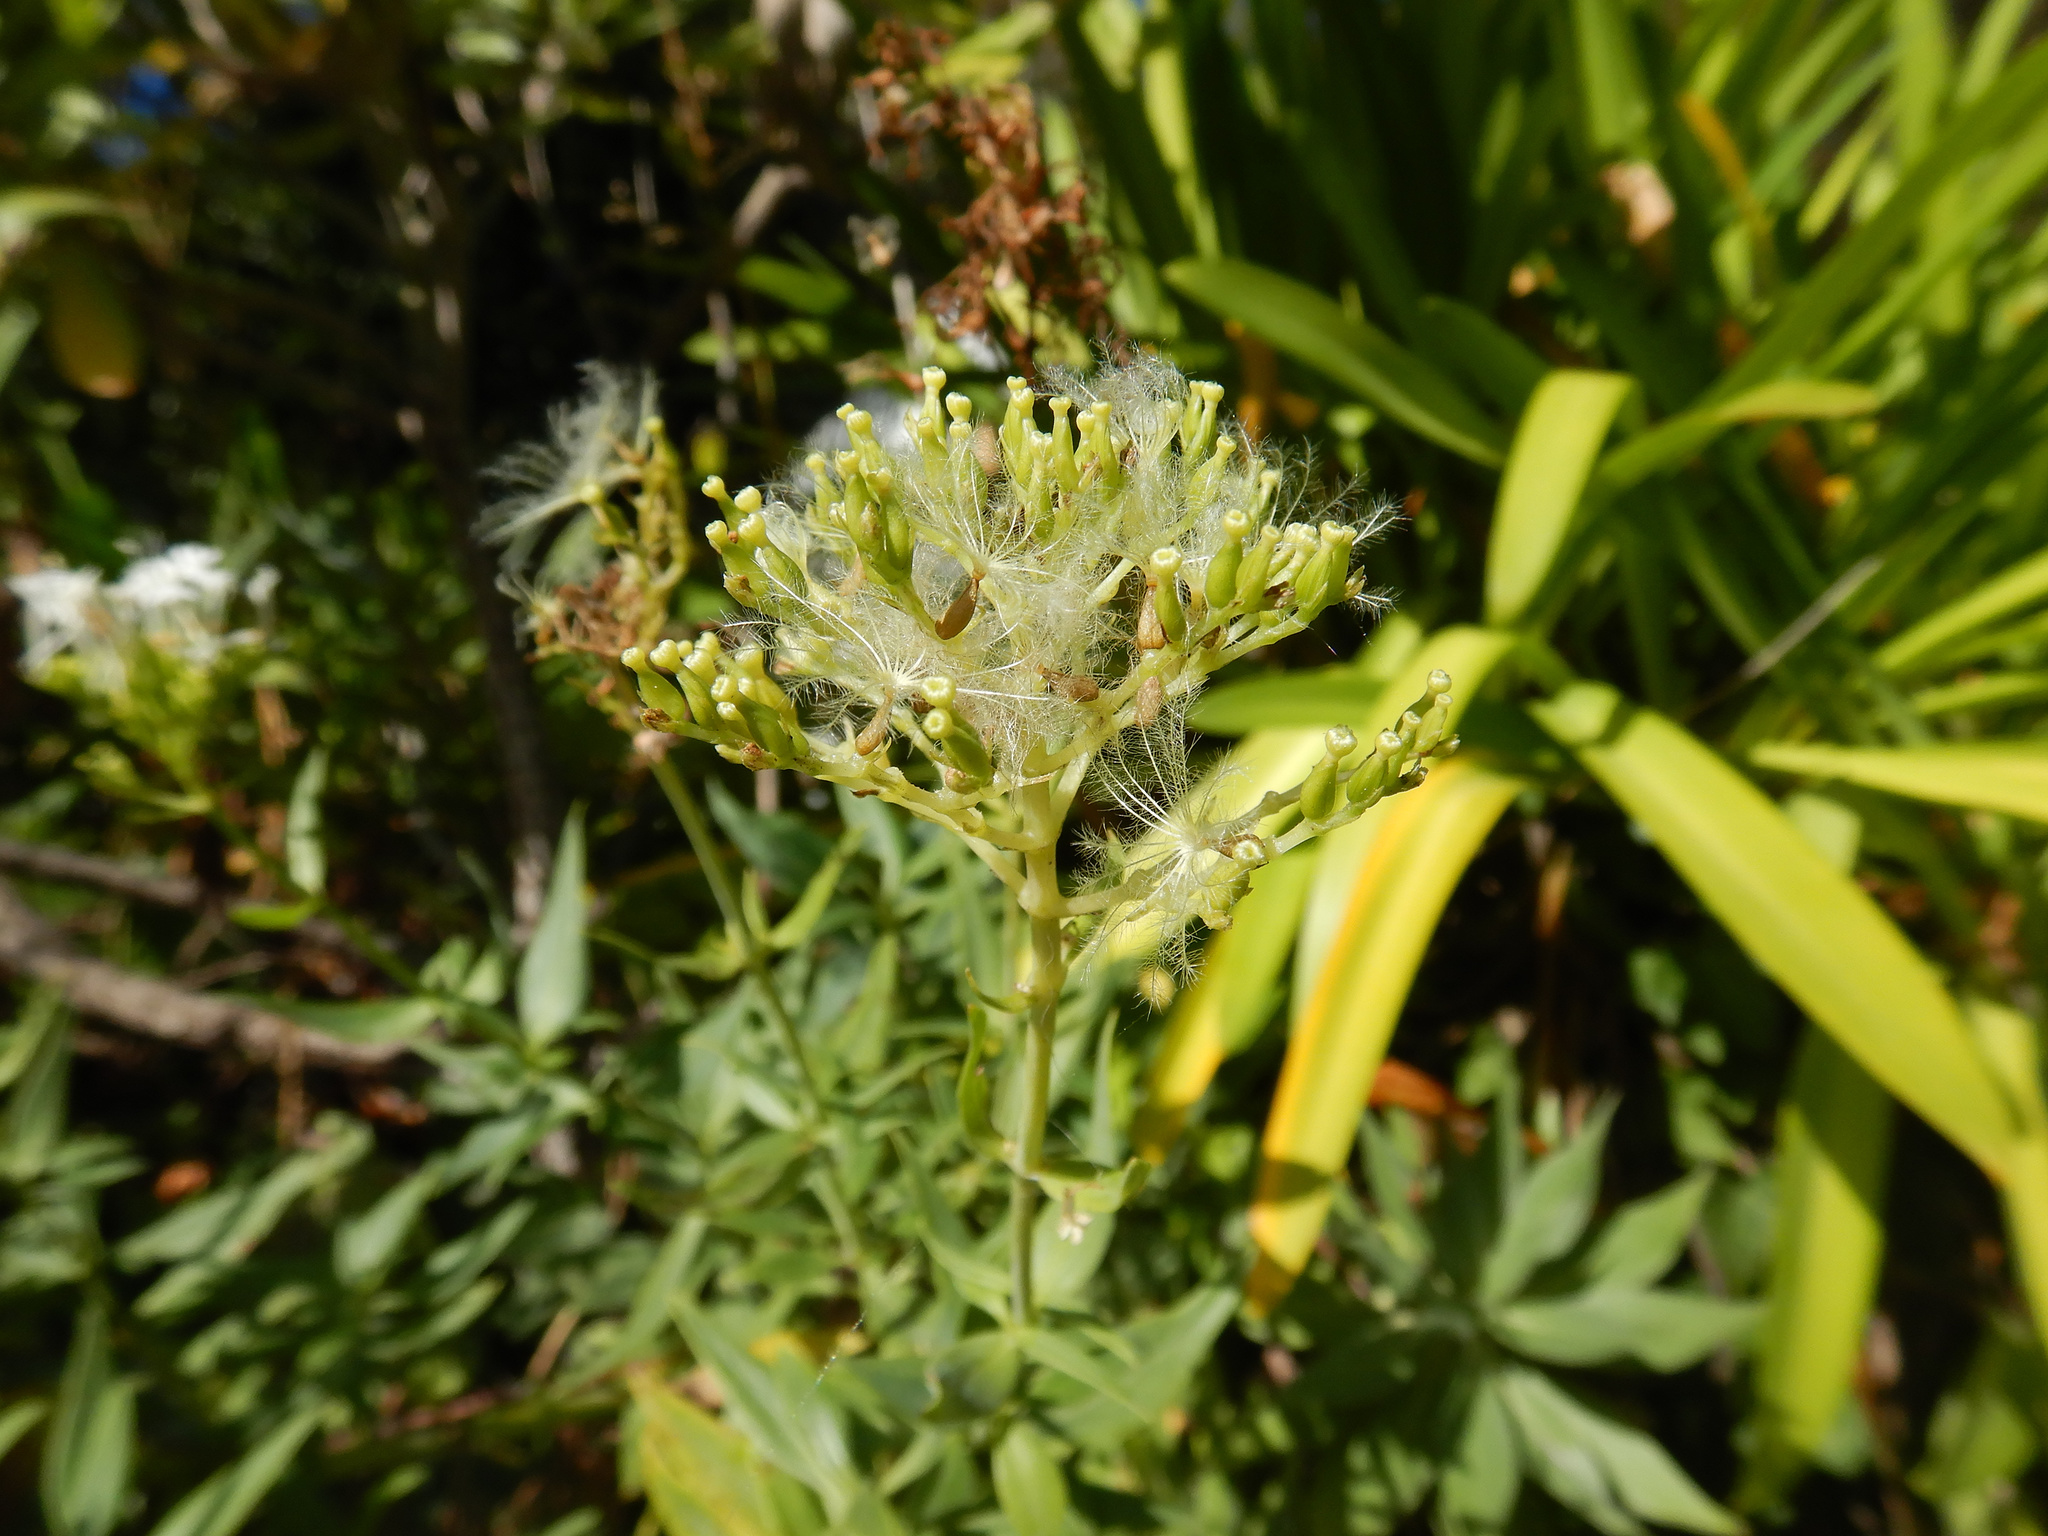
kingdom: Plantae
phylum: Tracheophyta
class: Magnoliopsida
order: Dipsacales
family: Caprifoliaceae
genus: Centranthus
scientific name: Centranthus ruber
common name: Red valerian
